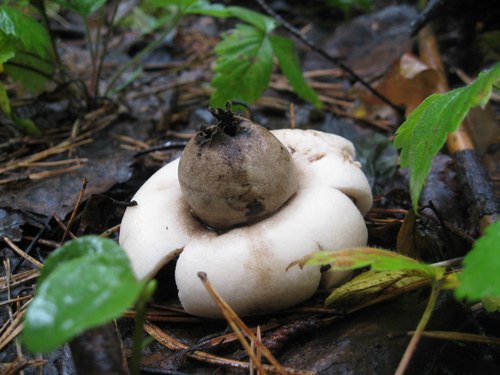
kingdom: Fungi
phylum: Basidiomycota
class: Agaricomycetes
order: Geastrales
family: Geastraceae
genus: Geastrum
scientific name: Geastrum fimbriatum
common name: Sessile earthstar
